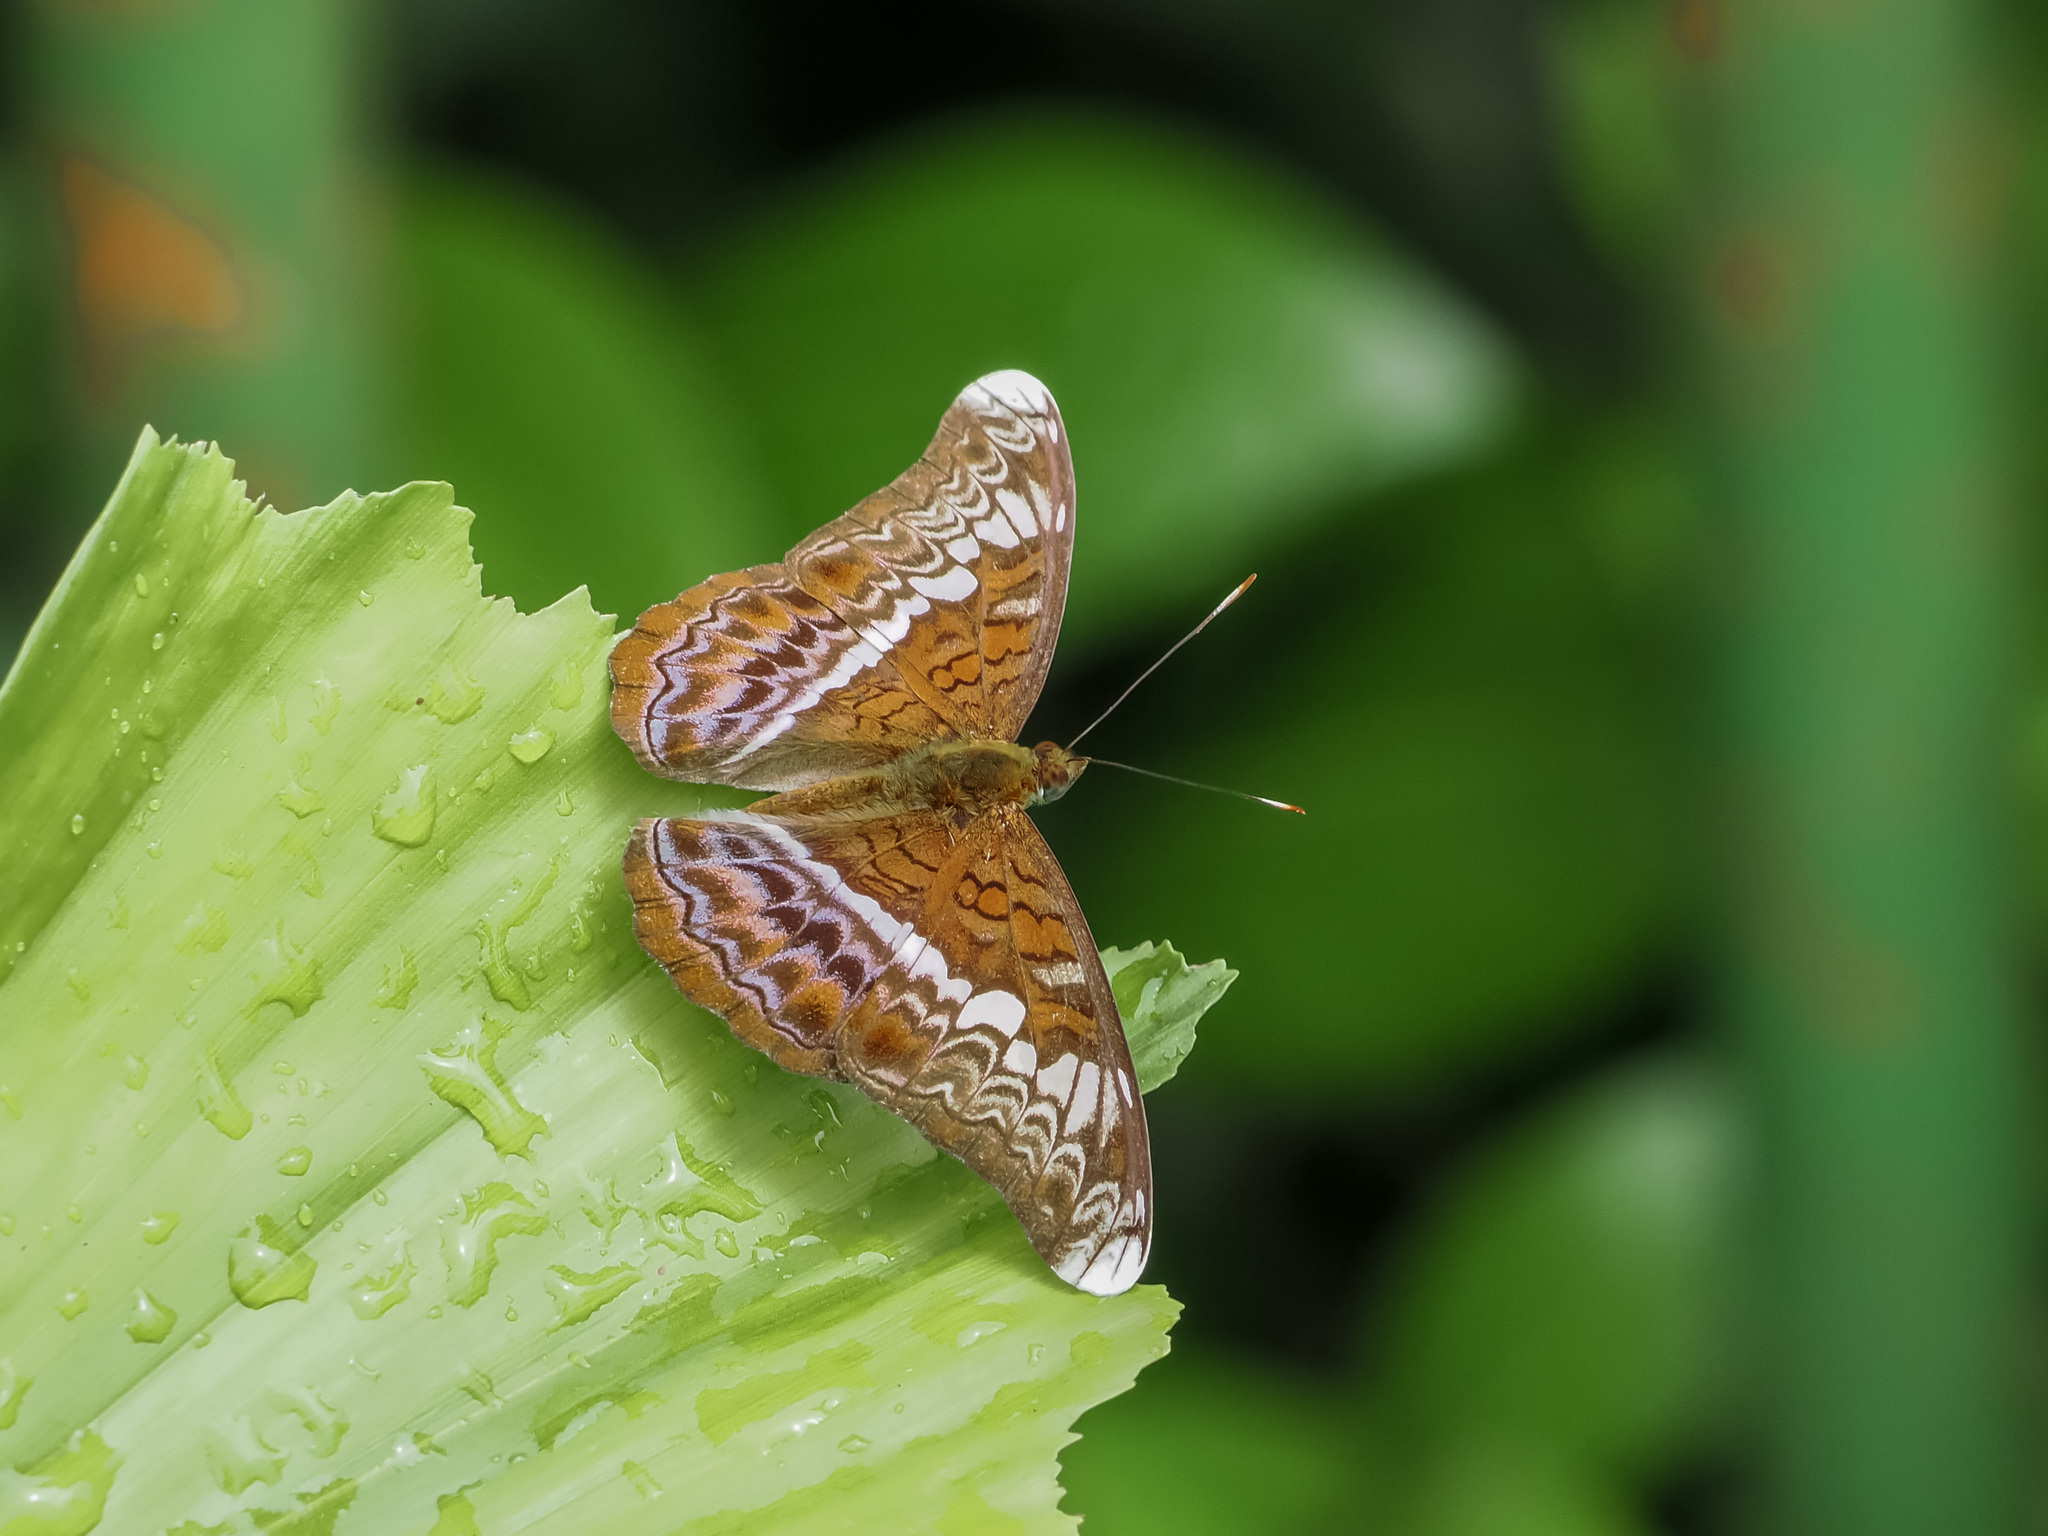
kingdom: Animalia
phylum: Arthropoda
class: Insecta
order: Lepidoptera
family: Nymphalidae
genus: Lebadea
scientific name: Lebadea martha
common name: Knight
